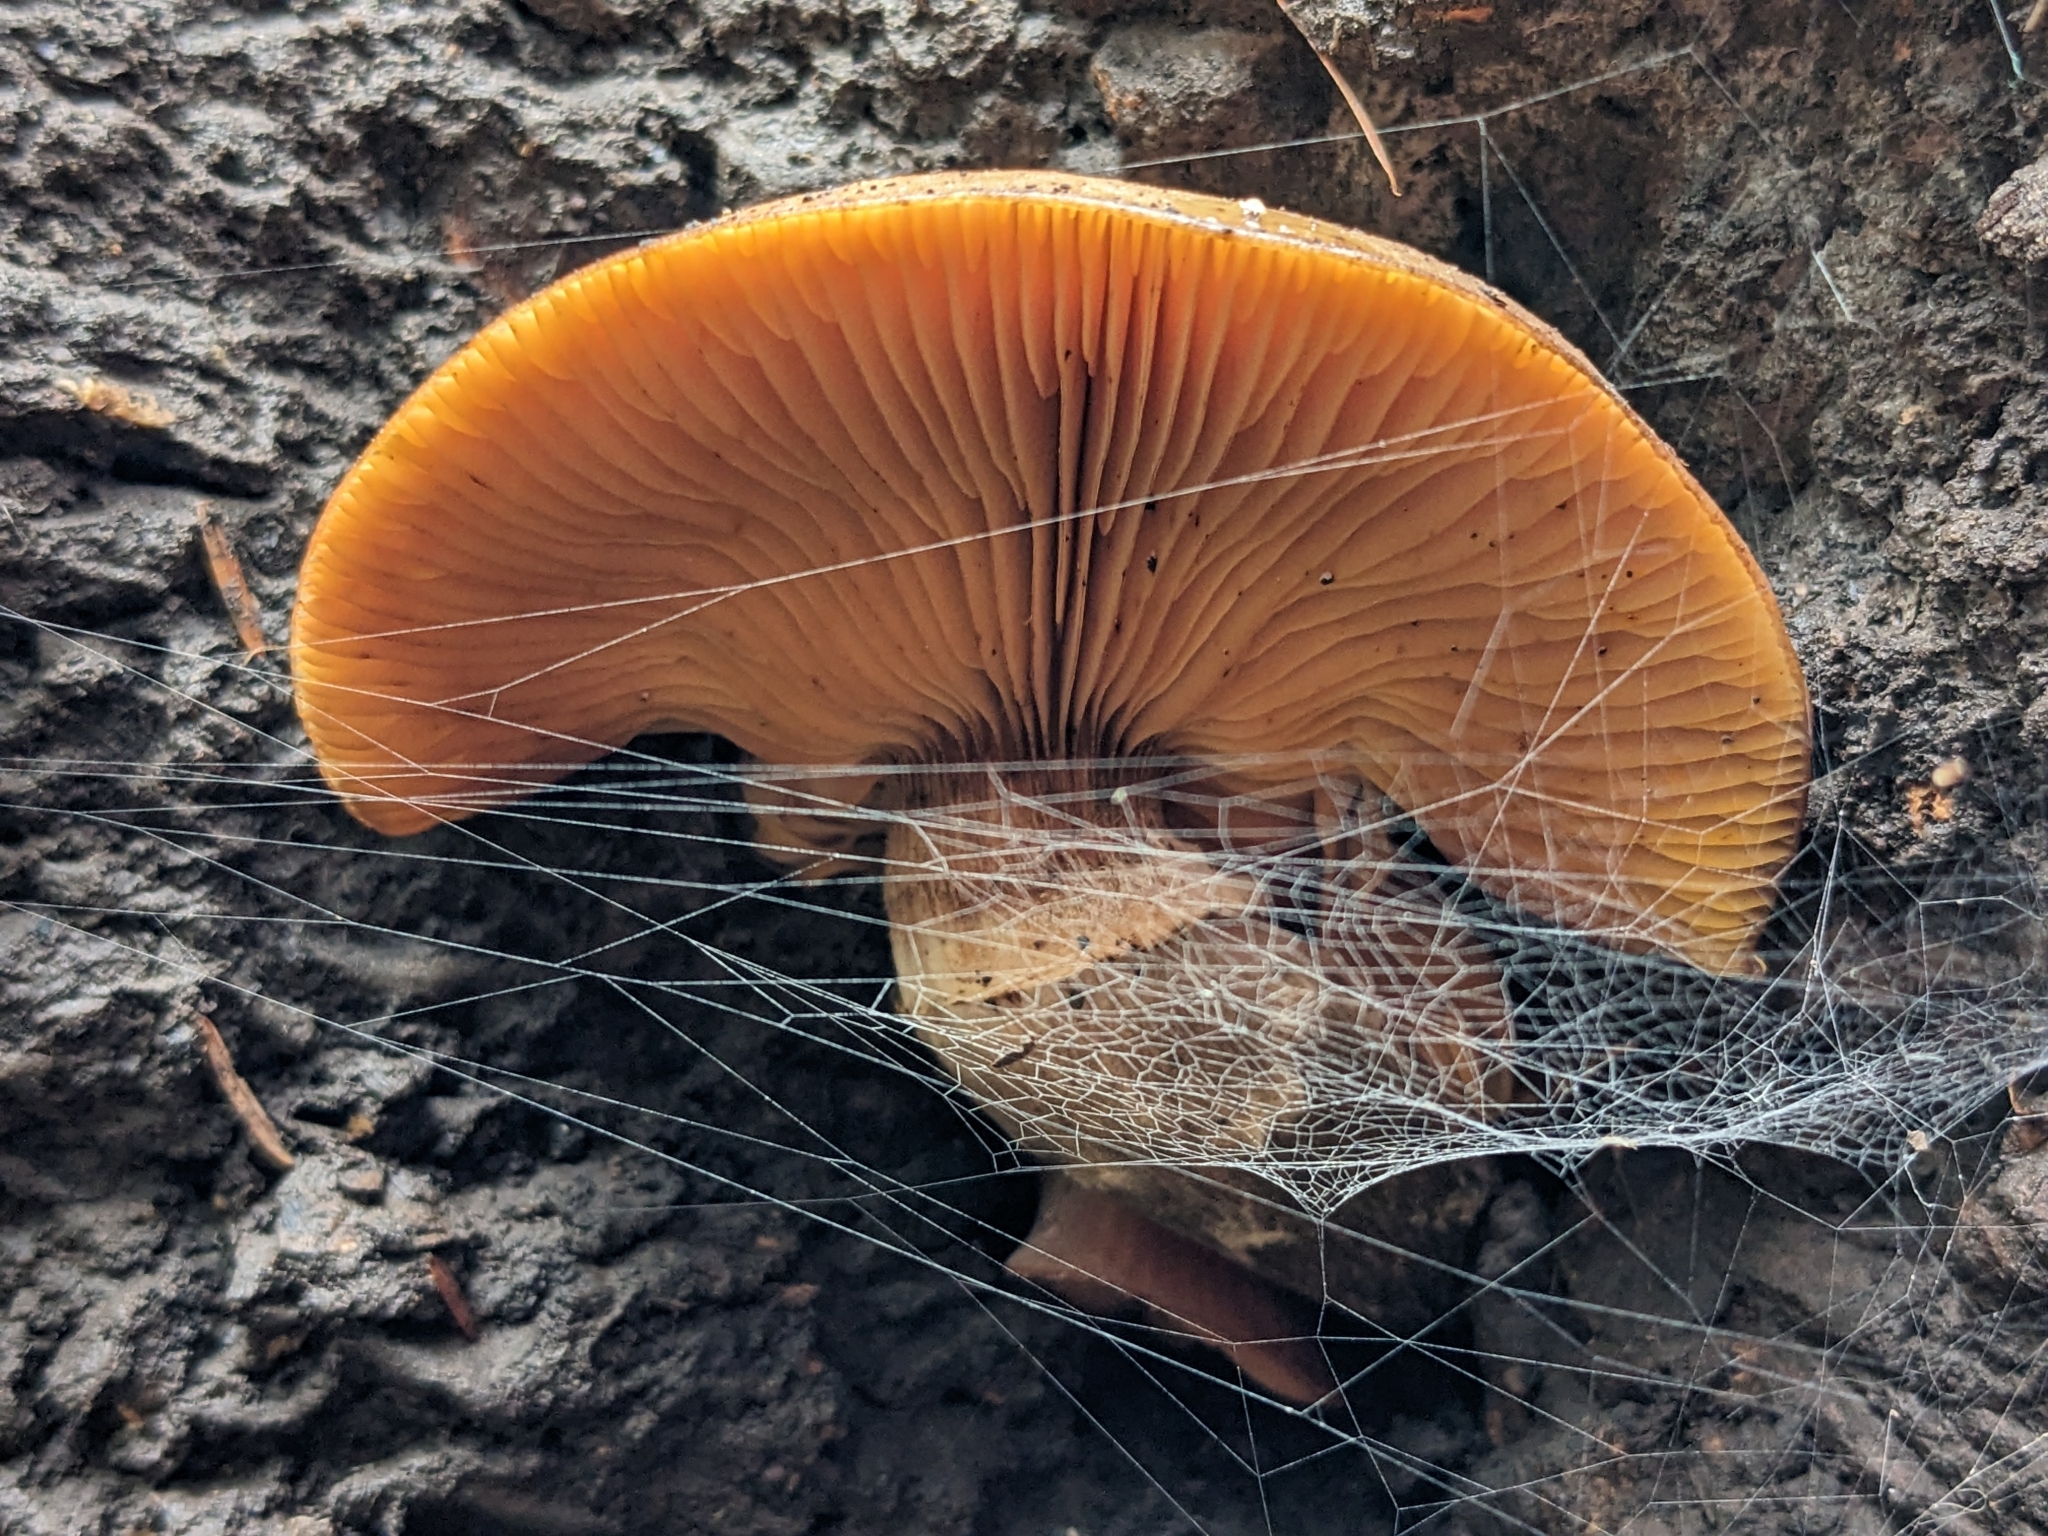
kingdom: Fungi
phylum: Basidiomycota
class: Agaricomycetes
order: Agaricales
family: Hymenogastraceae
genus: Gymnopilus
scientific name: Gymnopilus ventricosus
